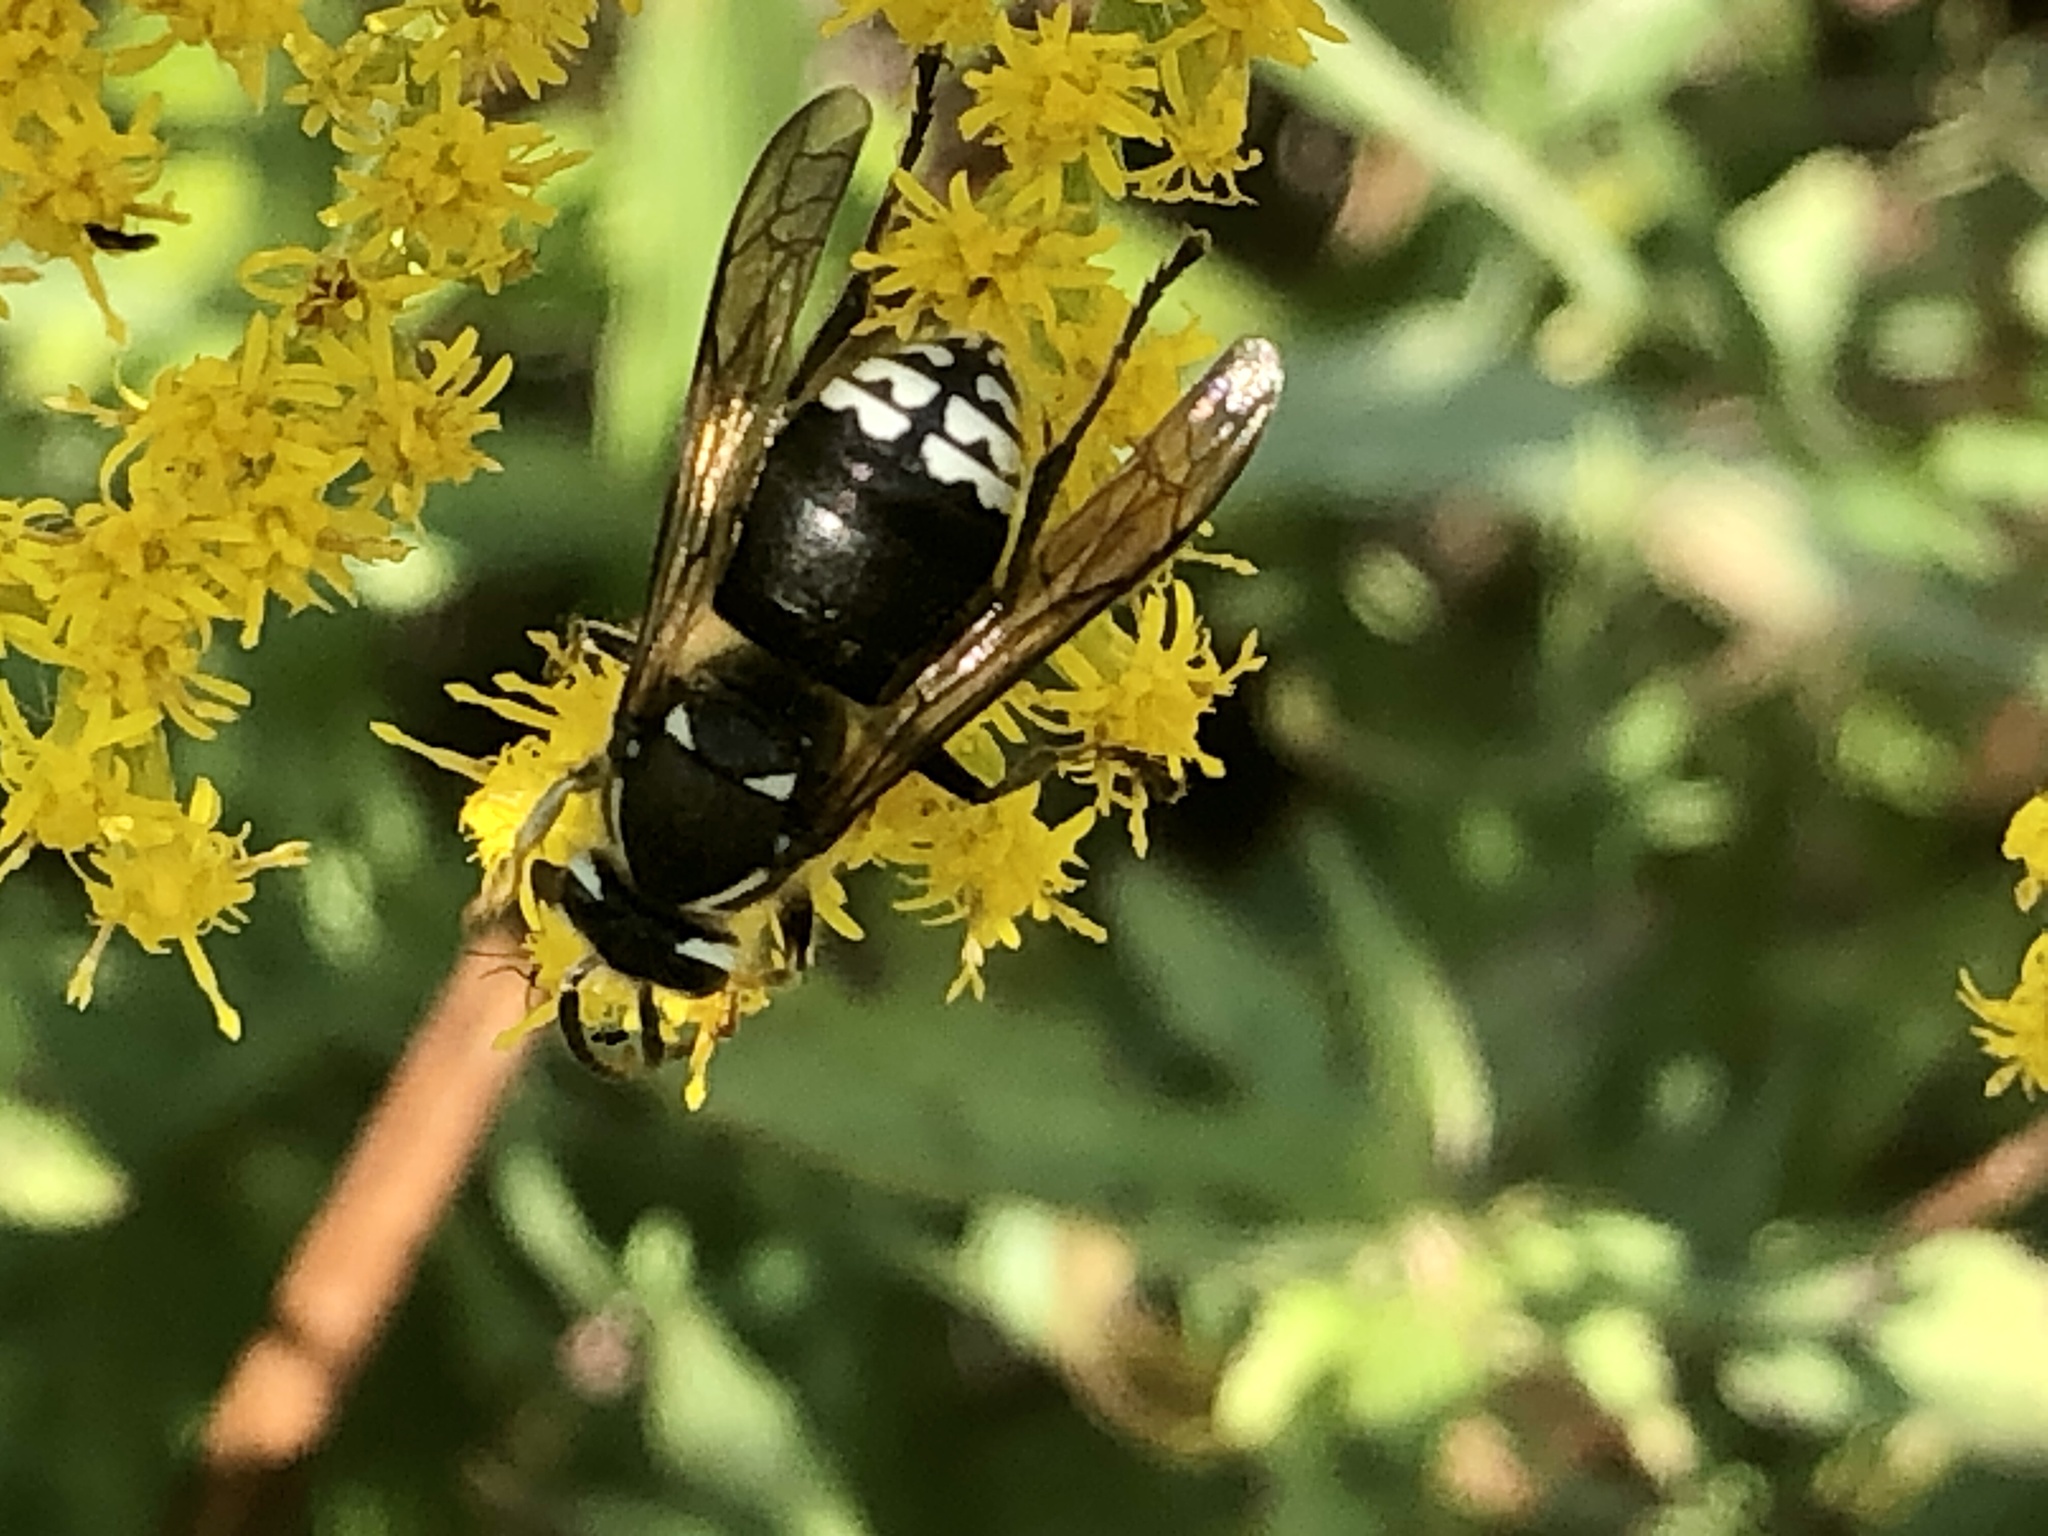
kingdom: Animalia
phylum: Arthropoda
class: Insecta
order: Hymenoptera
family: Vespidae
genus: Dolichovespula
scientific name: Dolichovespula maculata
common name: Bald-faced hornet
